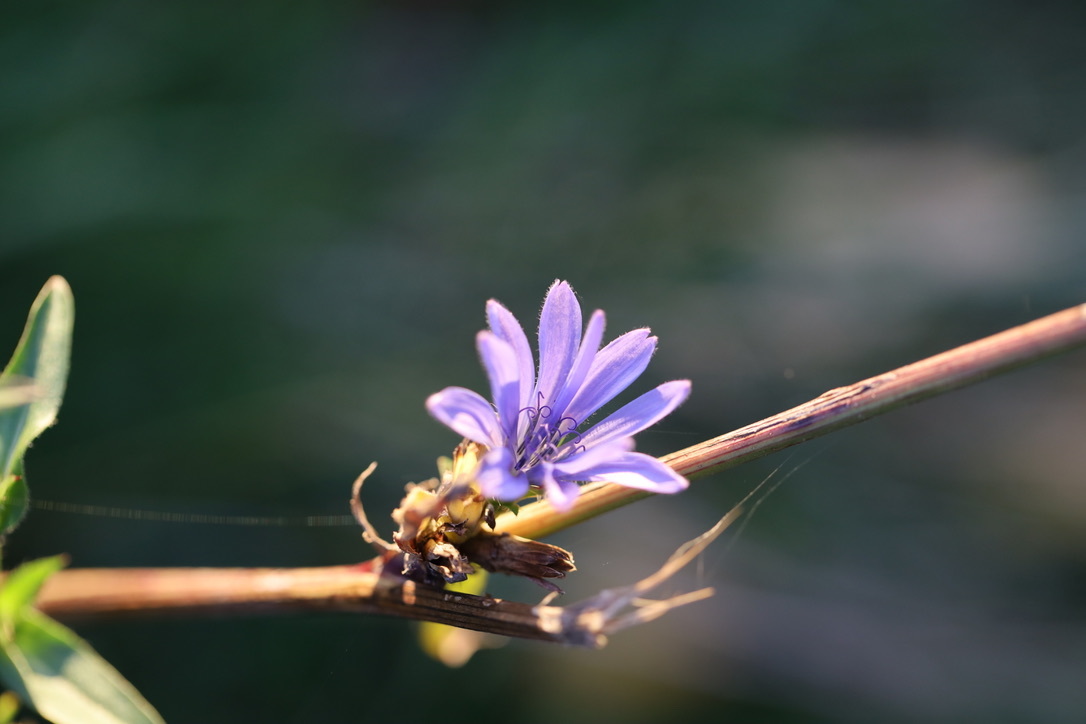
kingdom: Plantae
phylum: Tracheophyta
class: Magnoliopsida
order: Asterales
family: Asteraceae
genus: Cichorium
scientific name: Cichorium intybus
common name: Chicory
